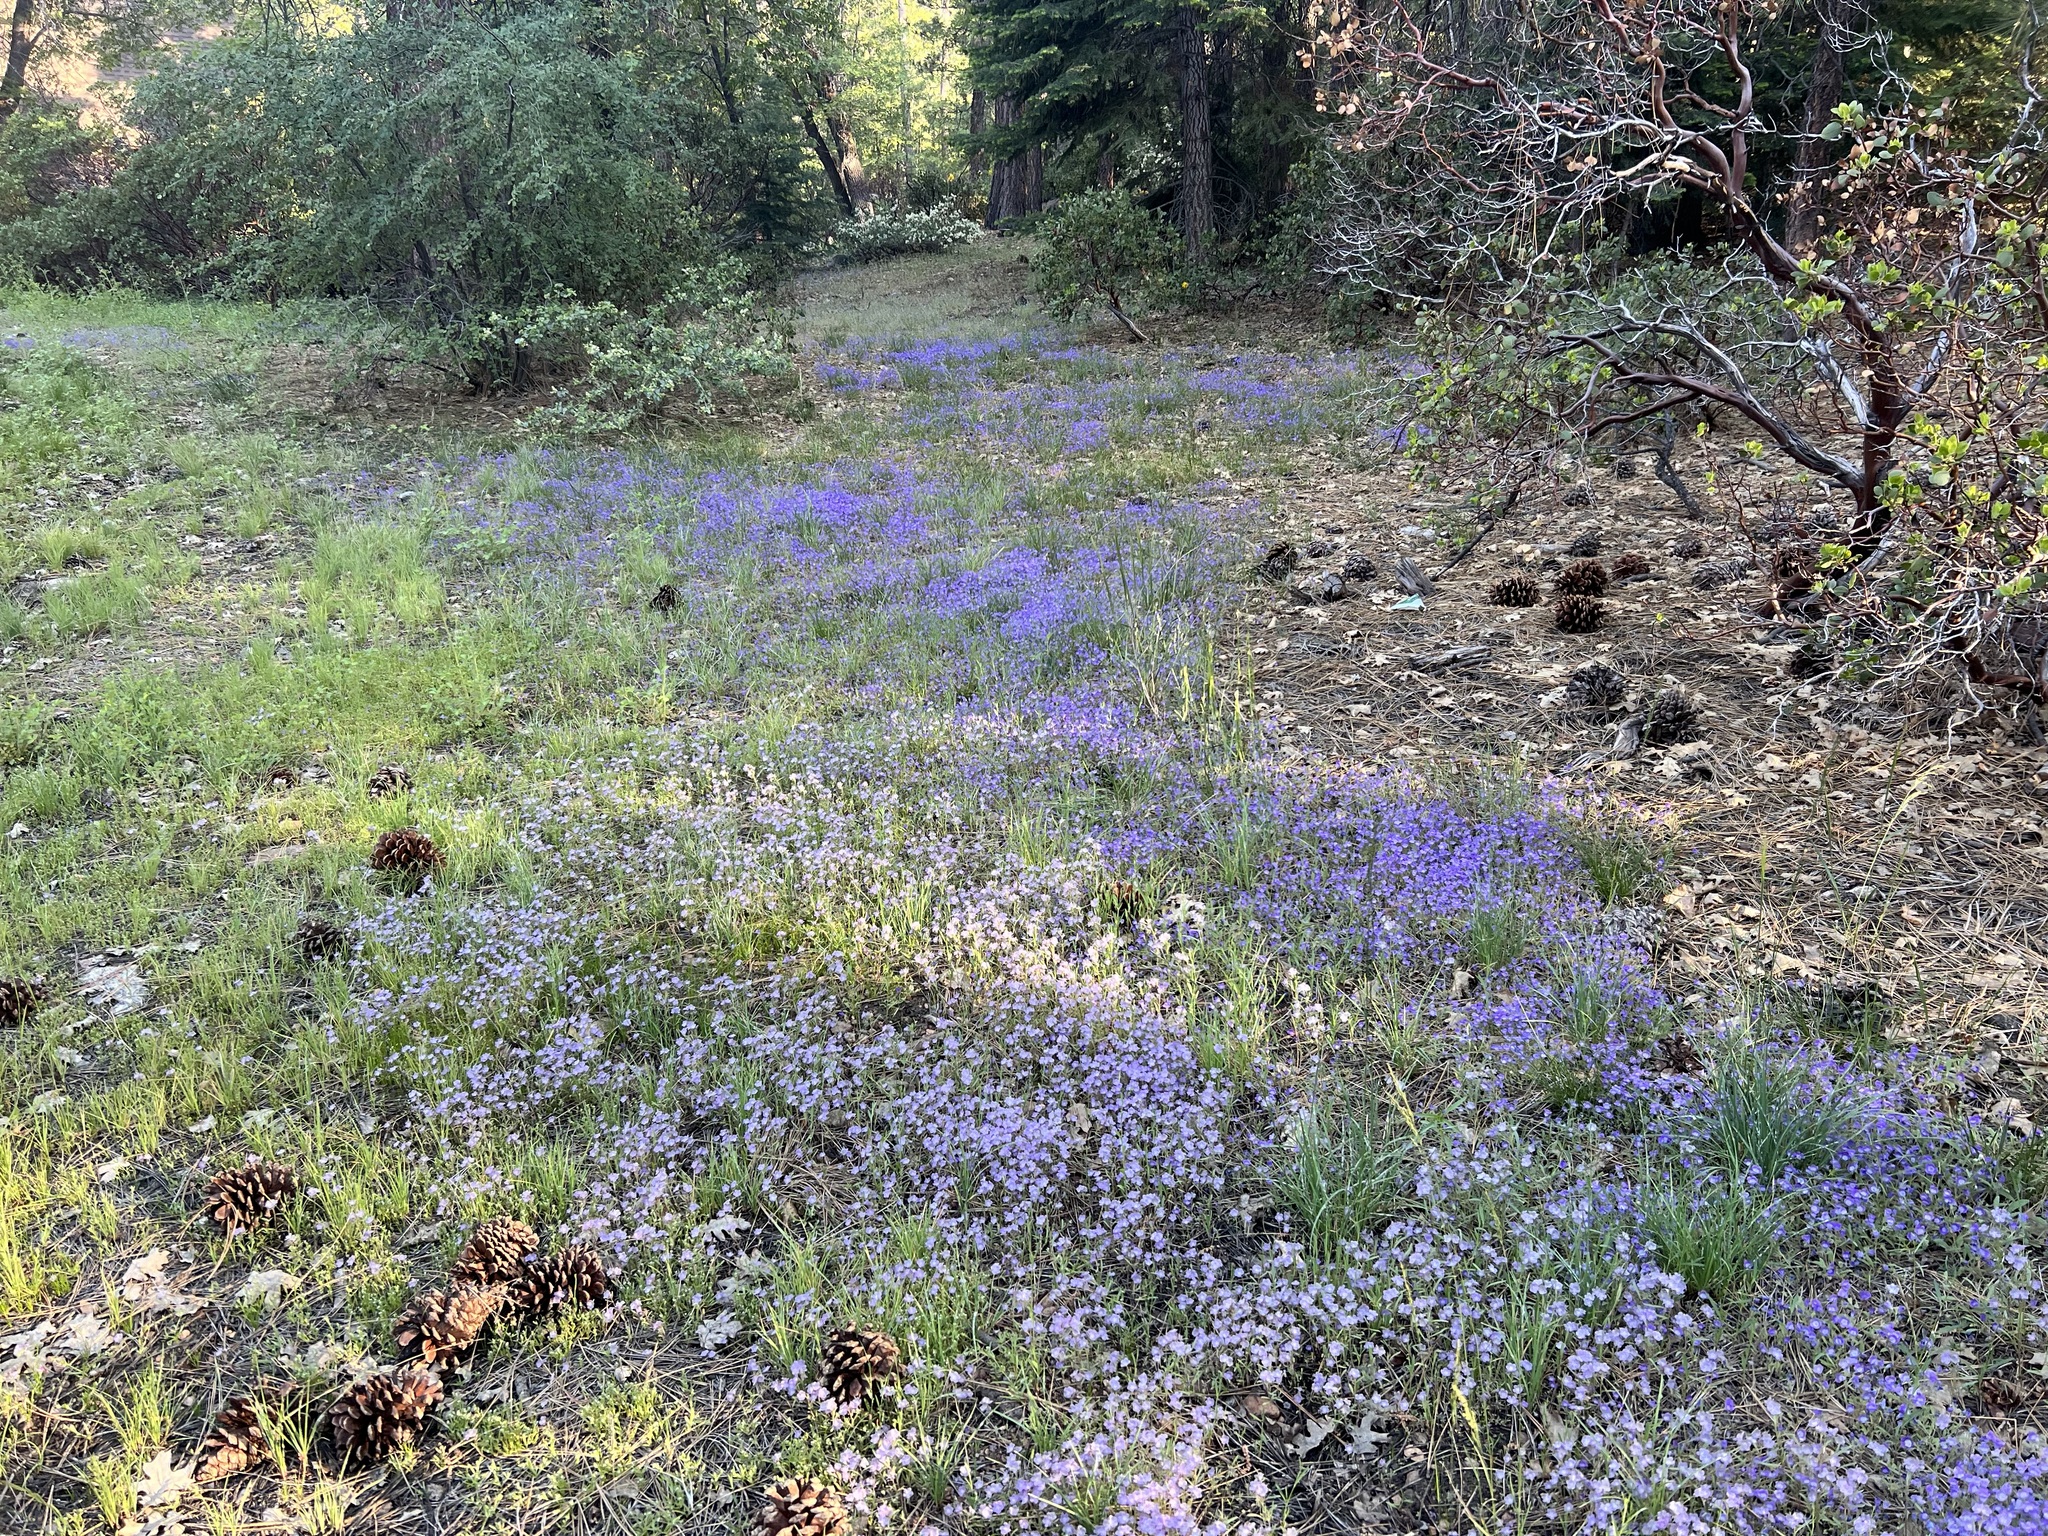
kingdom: Plantae
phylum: Tracheophyta
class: Magnoliopsida
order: Boraginales
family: Hydrophyllaceae
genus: Phacelia
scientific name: Phacelia exilis
